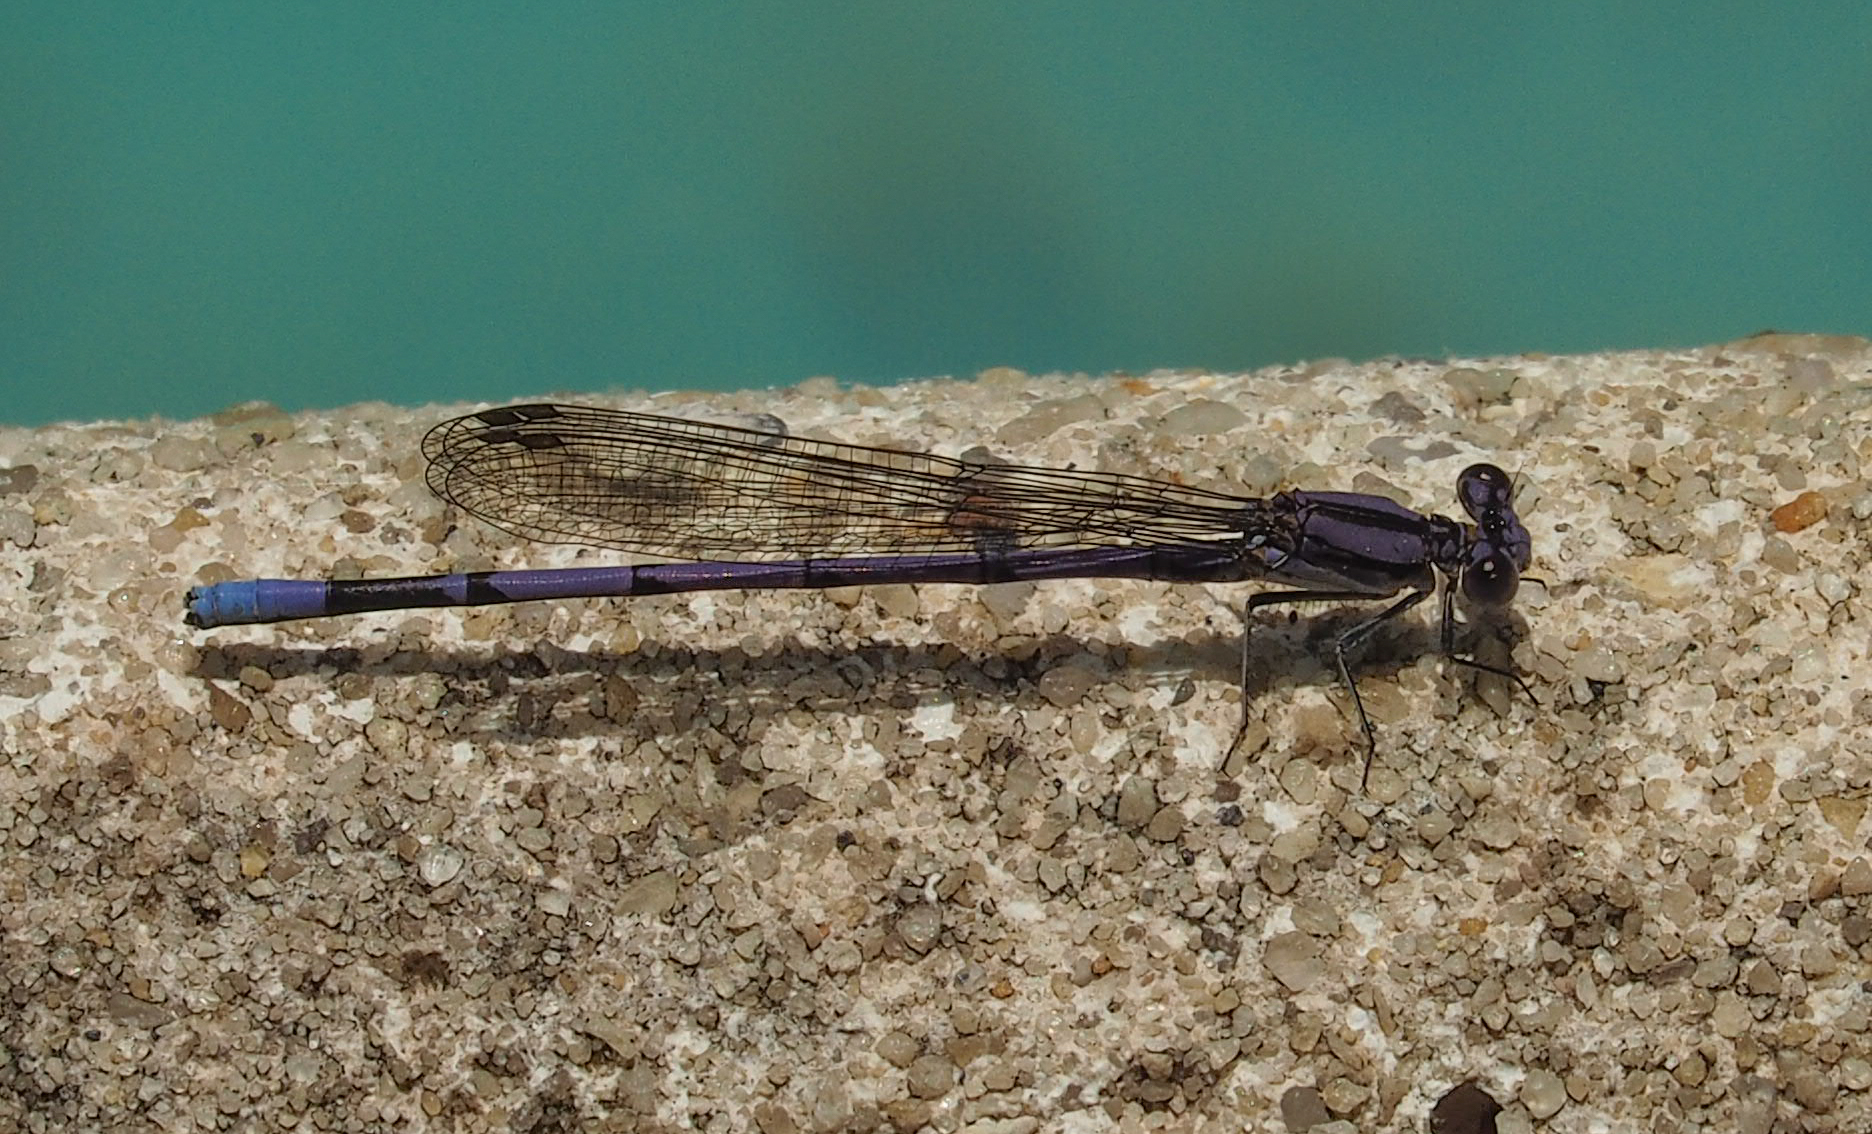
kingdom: Animalia
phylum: Arthropoda
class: Insecta
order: Odonata
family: Coenagrionidae
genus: Argia
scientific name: Argia fumipennis
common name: Variable dancer
